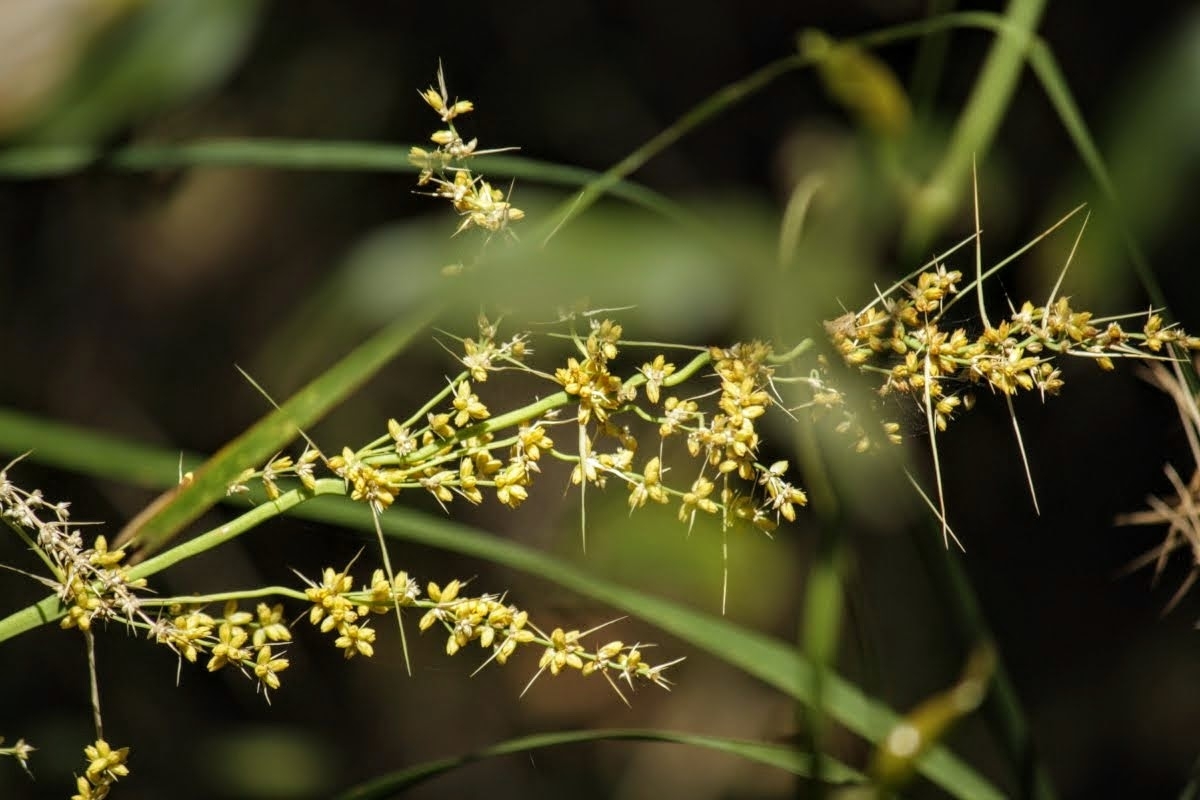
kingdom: Plantae
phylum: Tracheophyta
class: Liliopsida
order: Asparagales
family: Asparagaceae
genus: Lomandra
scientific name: Lomandra longifolia
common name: Longleaf mat-rush
